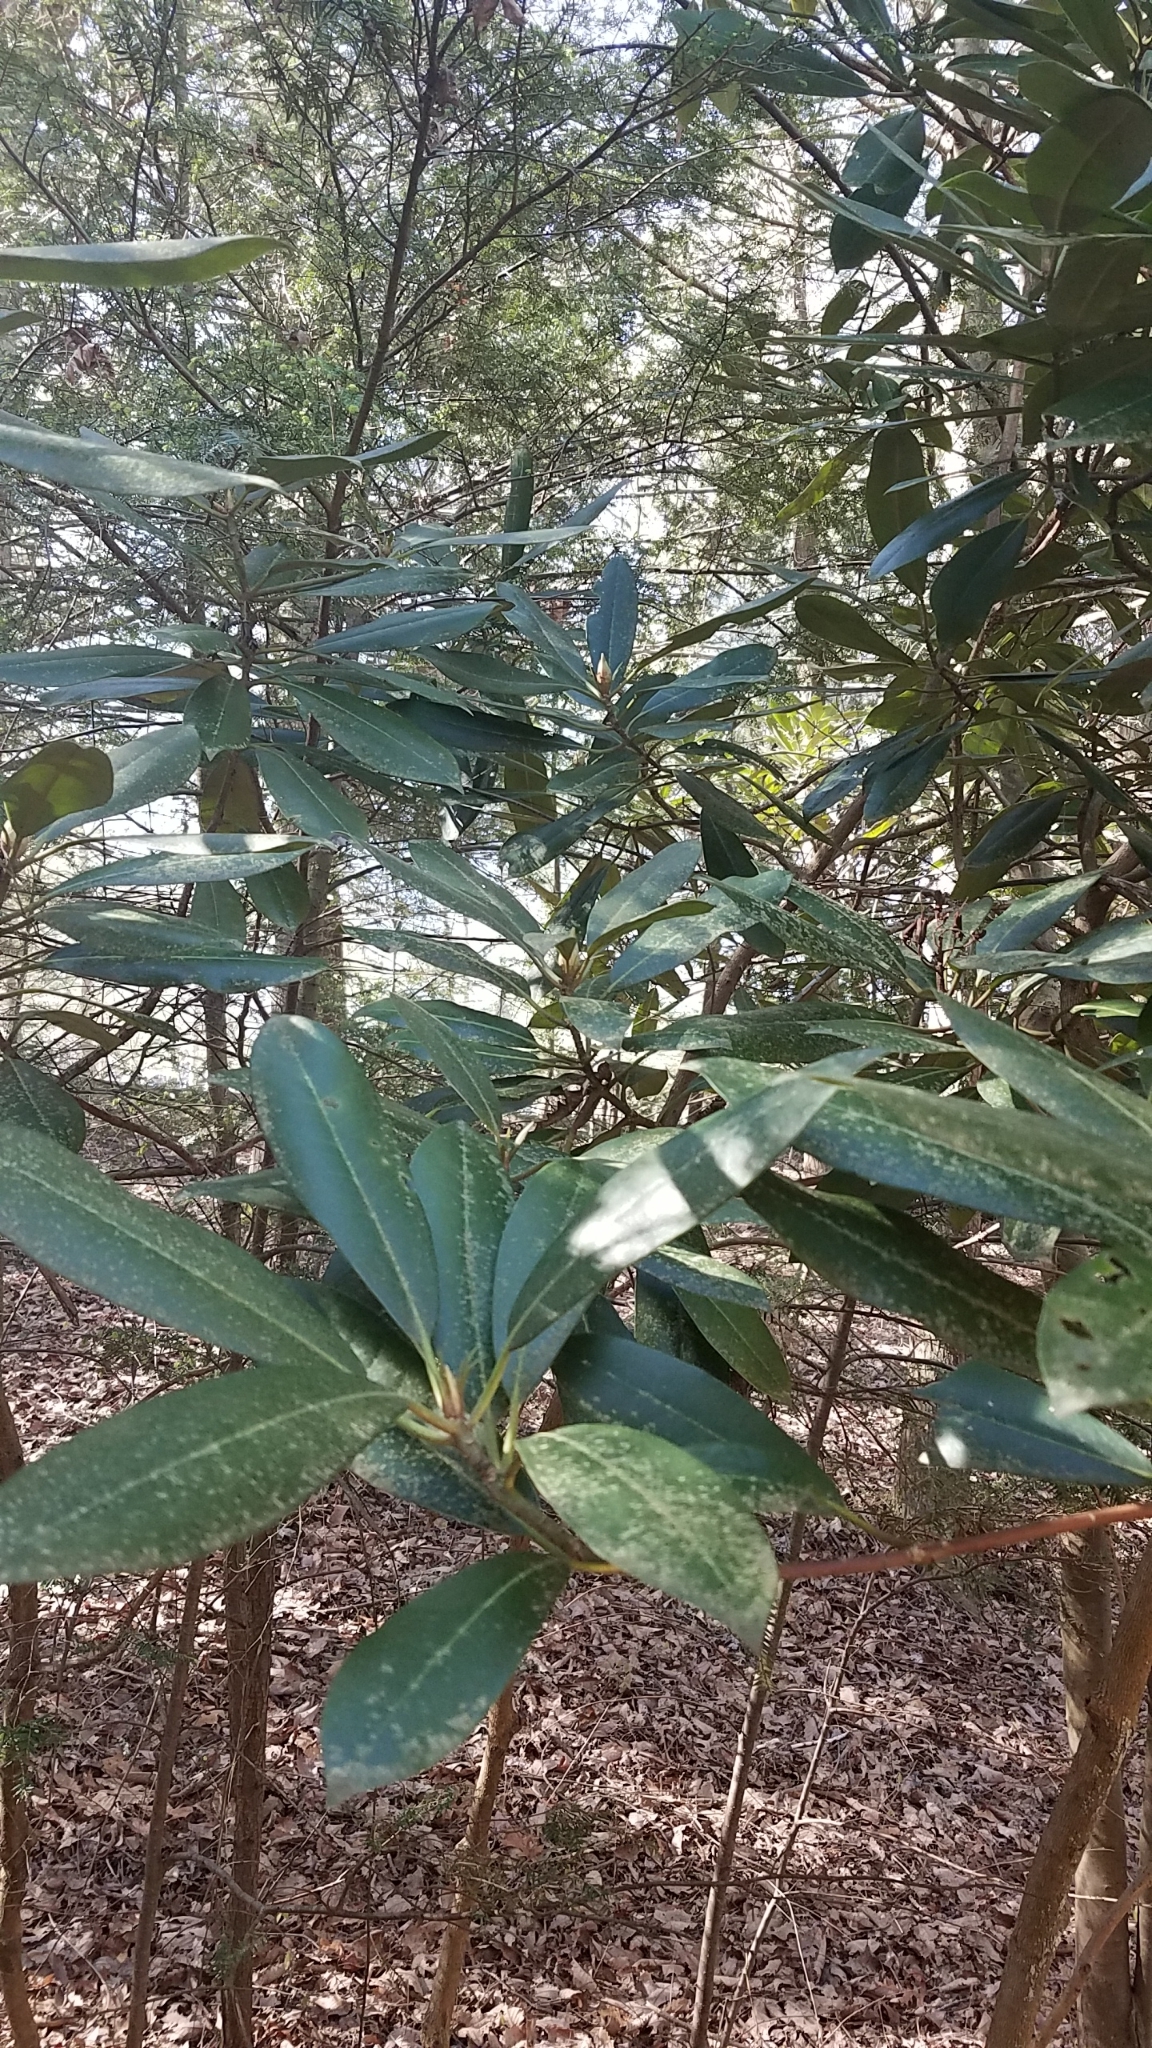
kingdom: Plantae
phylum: Tracheophyta
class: Magnoliopsida
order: Ericales
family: Ericaceae
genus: Rhododendron
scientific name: Rhododendron maximum
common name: Great rhododendron
